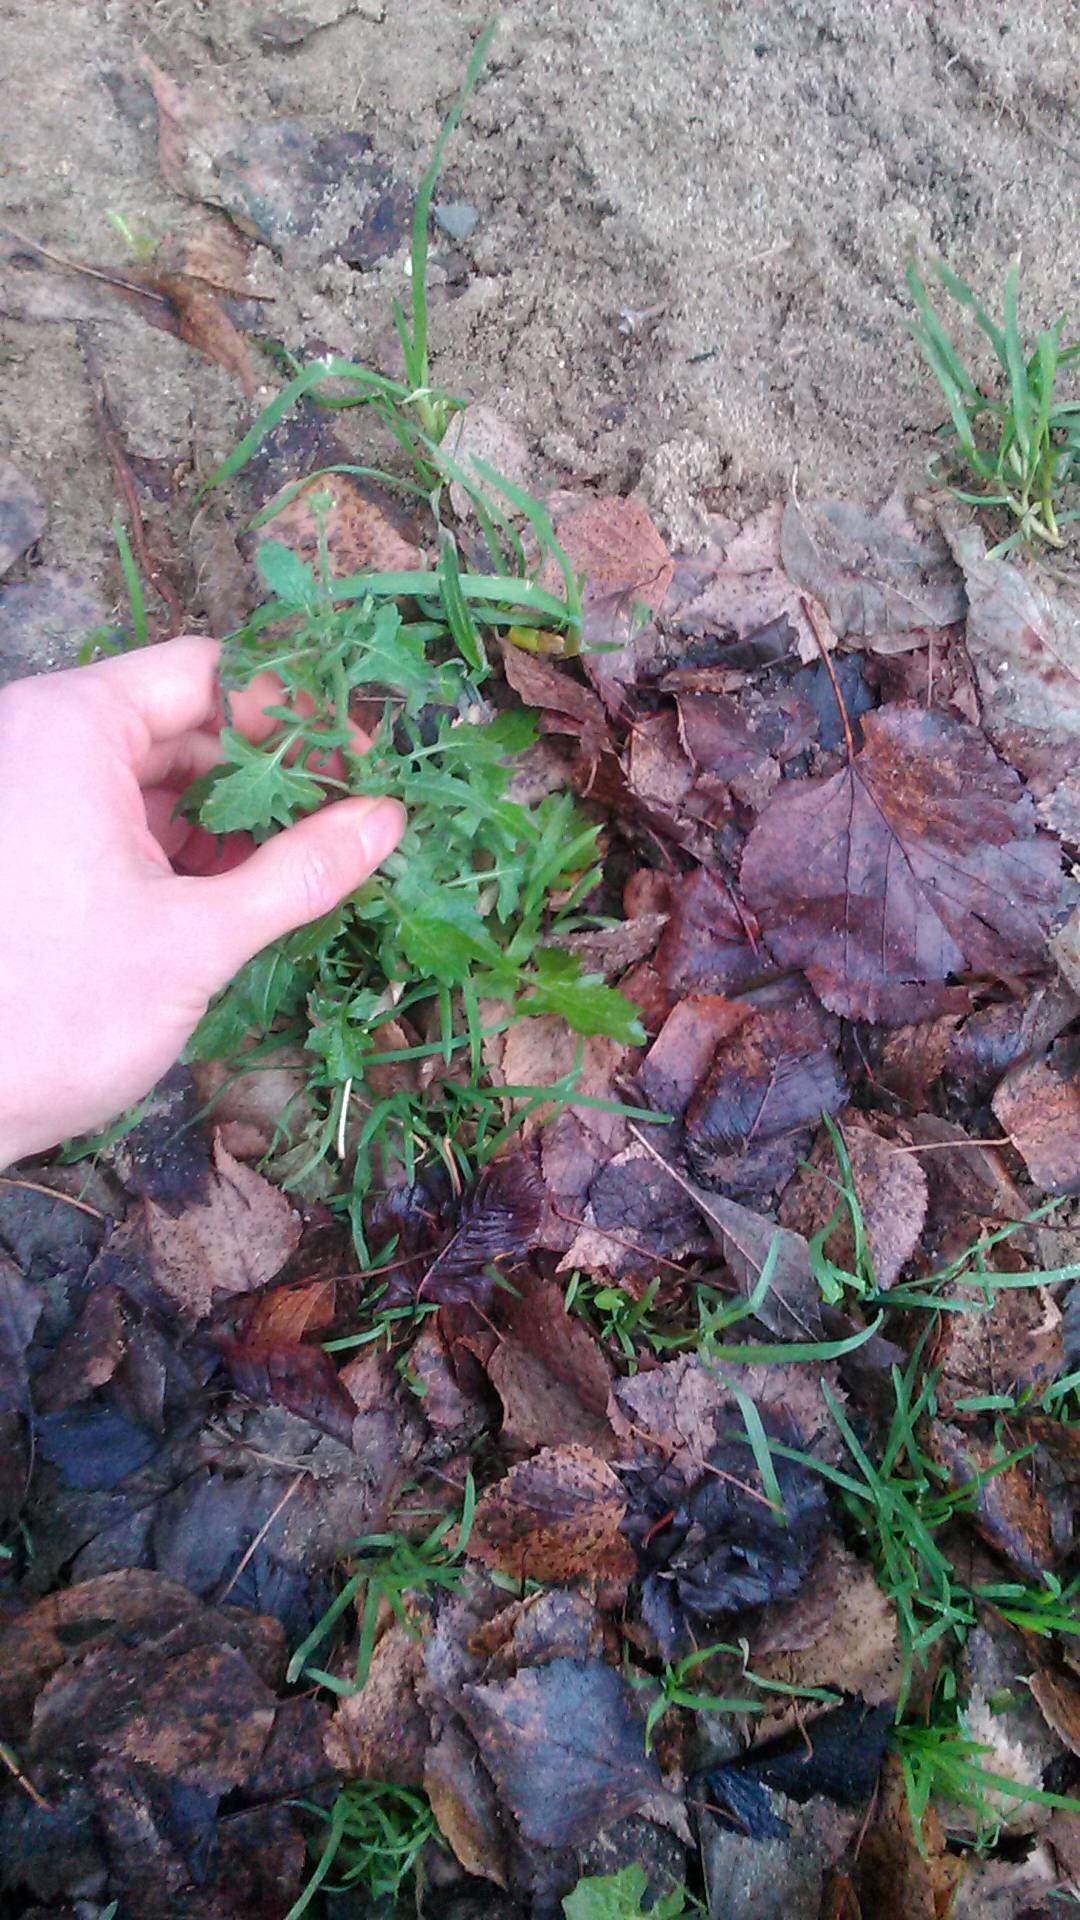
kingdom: Plantae
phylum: Tracheophyta
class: Magnoliopsida
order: Brassicales
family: Brassicaceae
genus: Sisymbrium
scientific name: Sisymbrium officinale
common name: Hedge mustard
